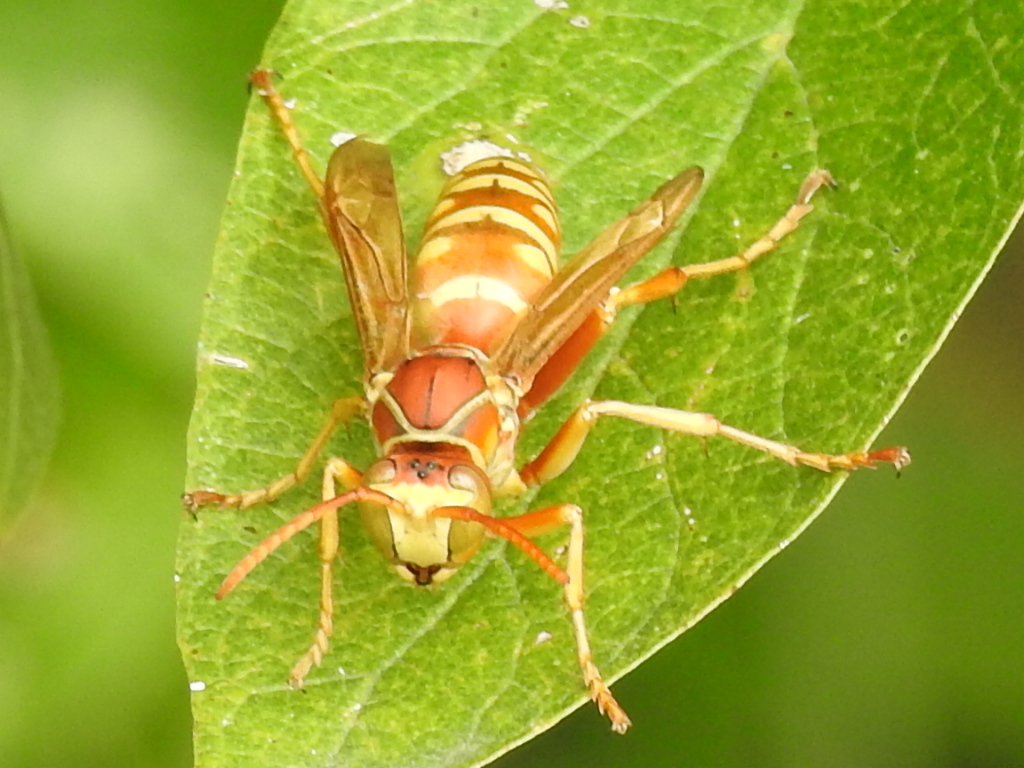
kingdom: Animalia
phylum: Arthropoda
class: Insecta
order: Hymenoptera
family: Eumenidae
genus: Polistes
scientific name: Polistes apachus
